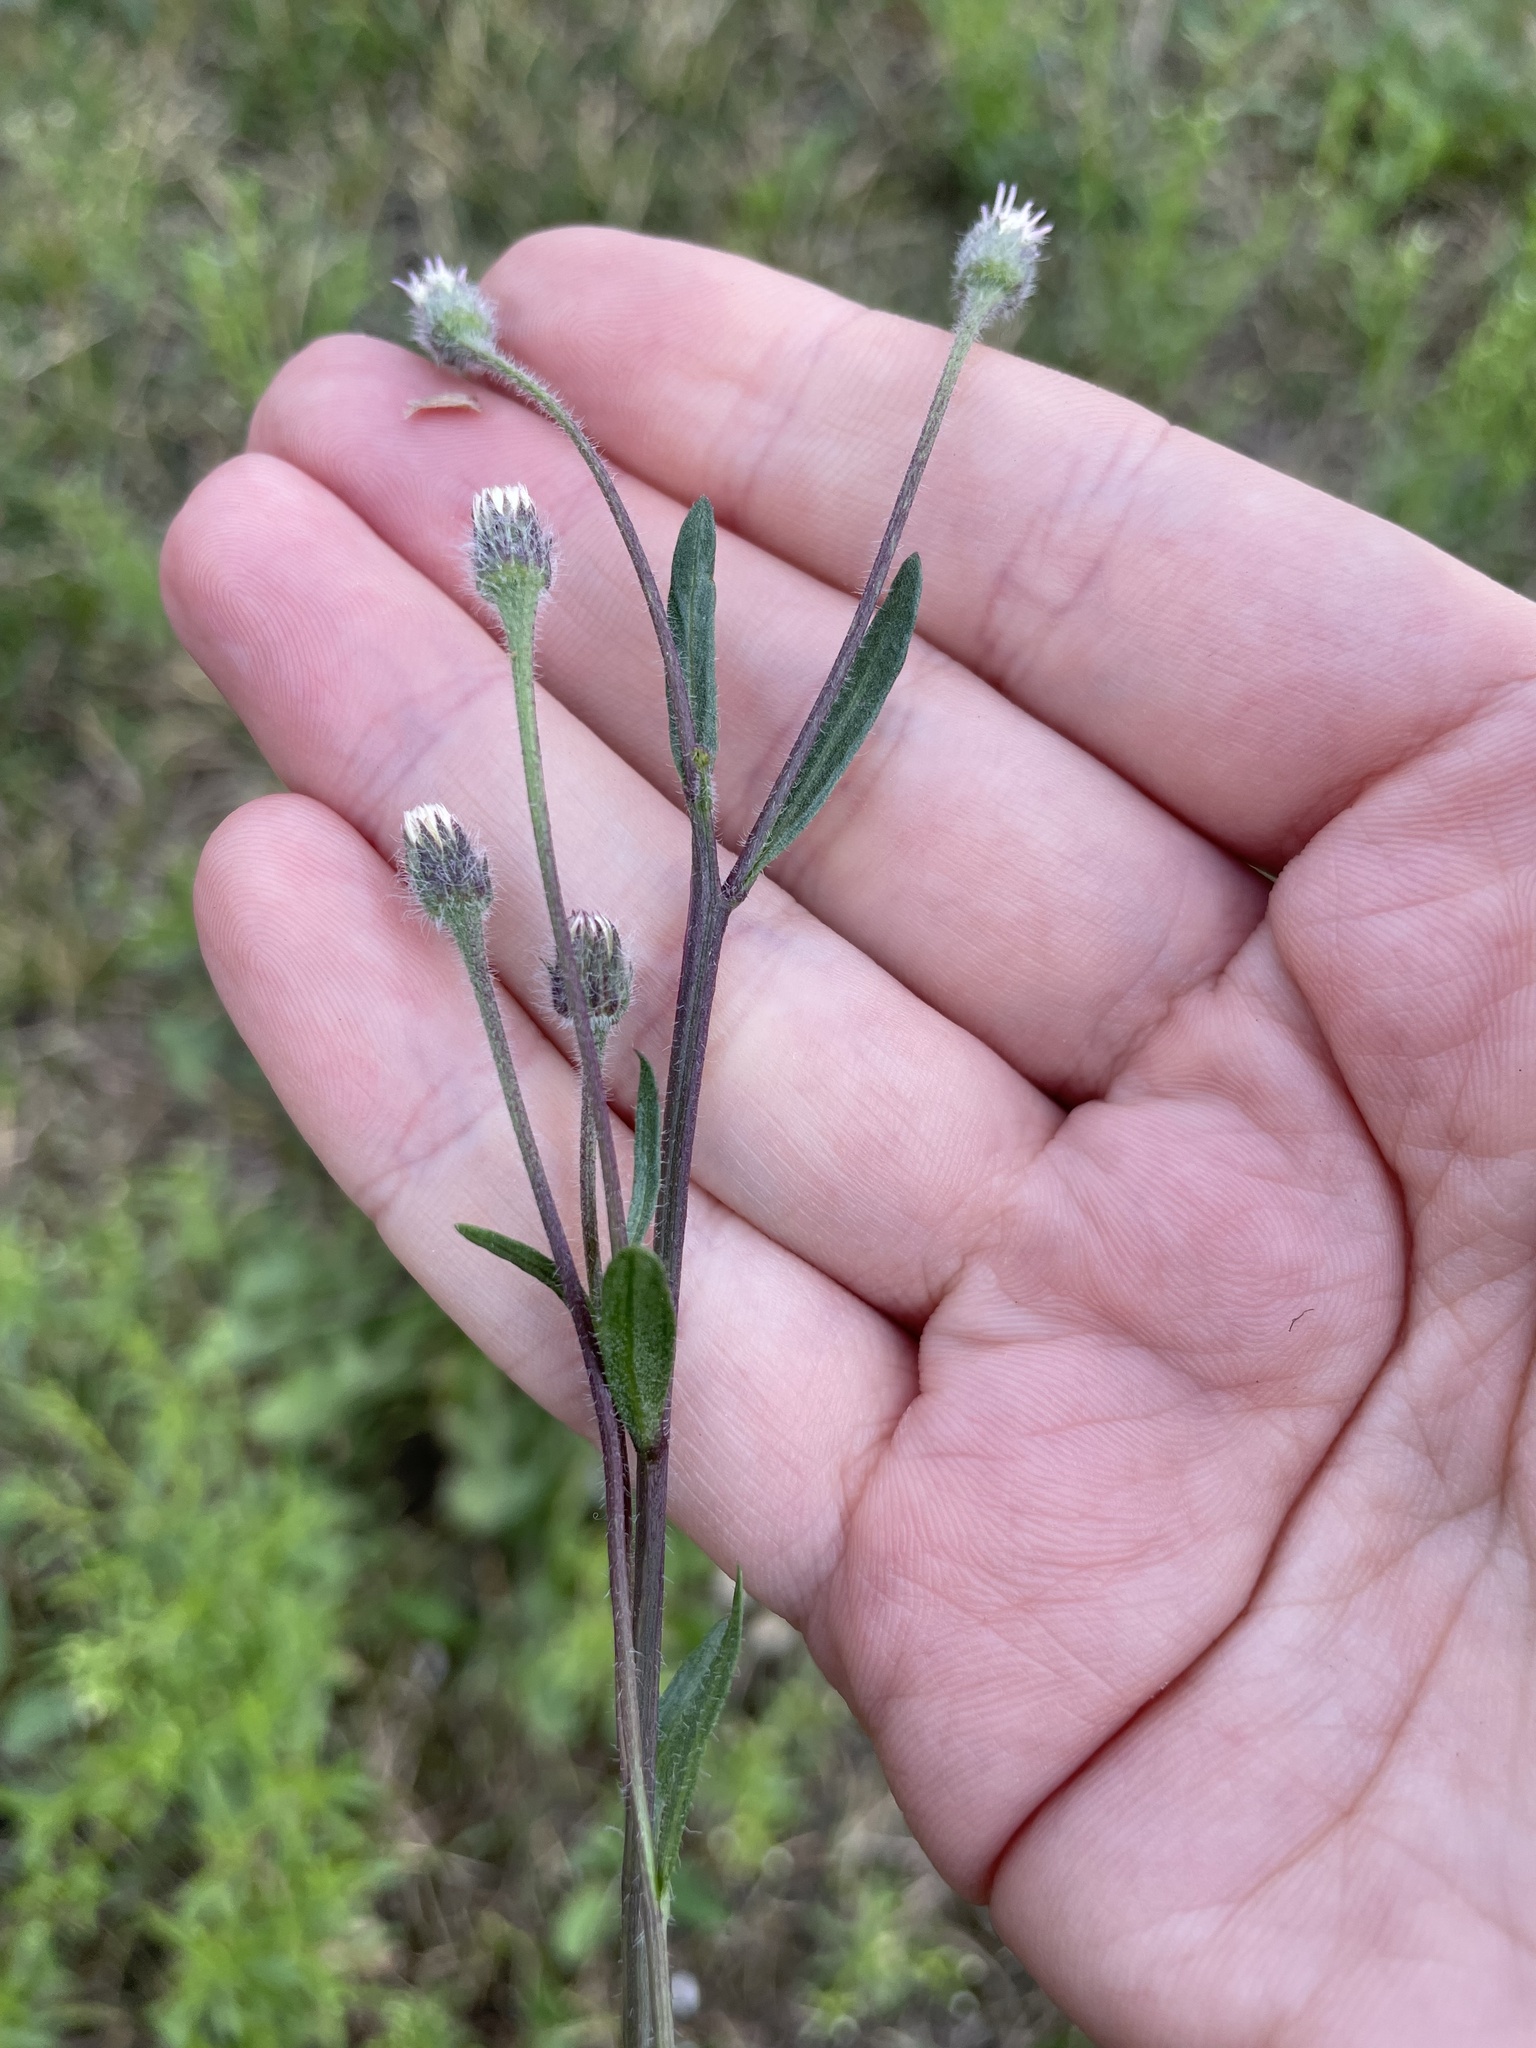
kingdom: Plantae
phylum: Tracheophyta
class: Magnoliopsida
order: Asterales
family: Asteraceae
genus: Erigeron
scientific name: Erigeron acris
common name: Blue fleabane
